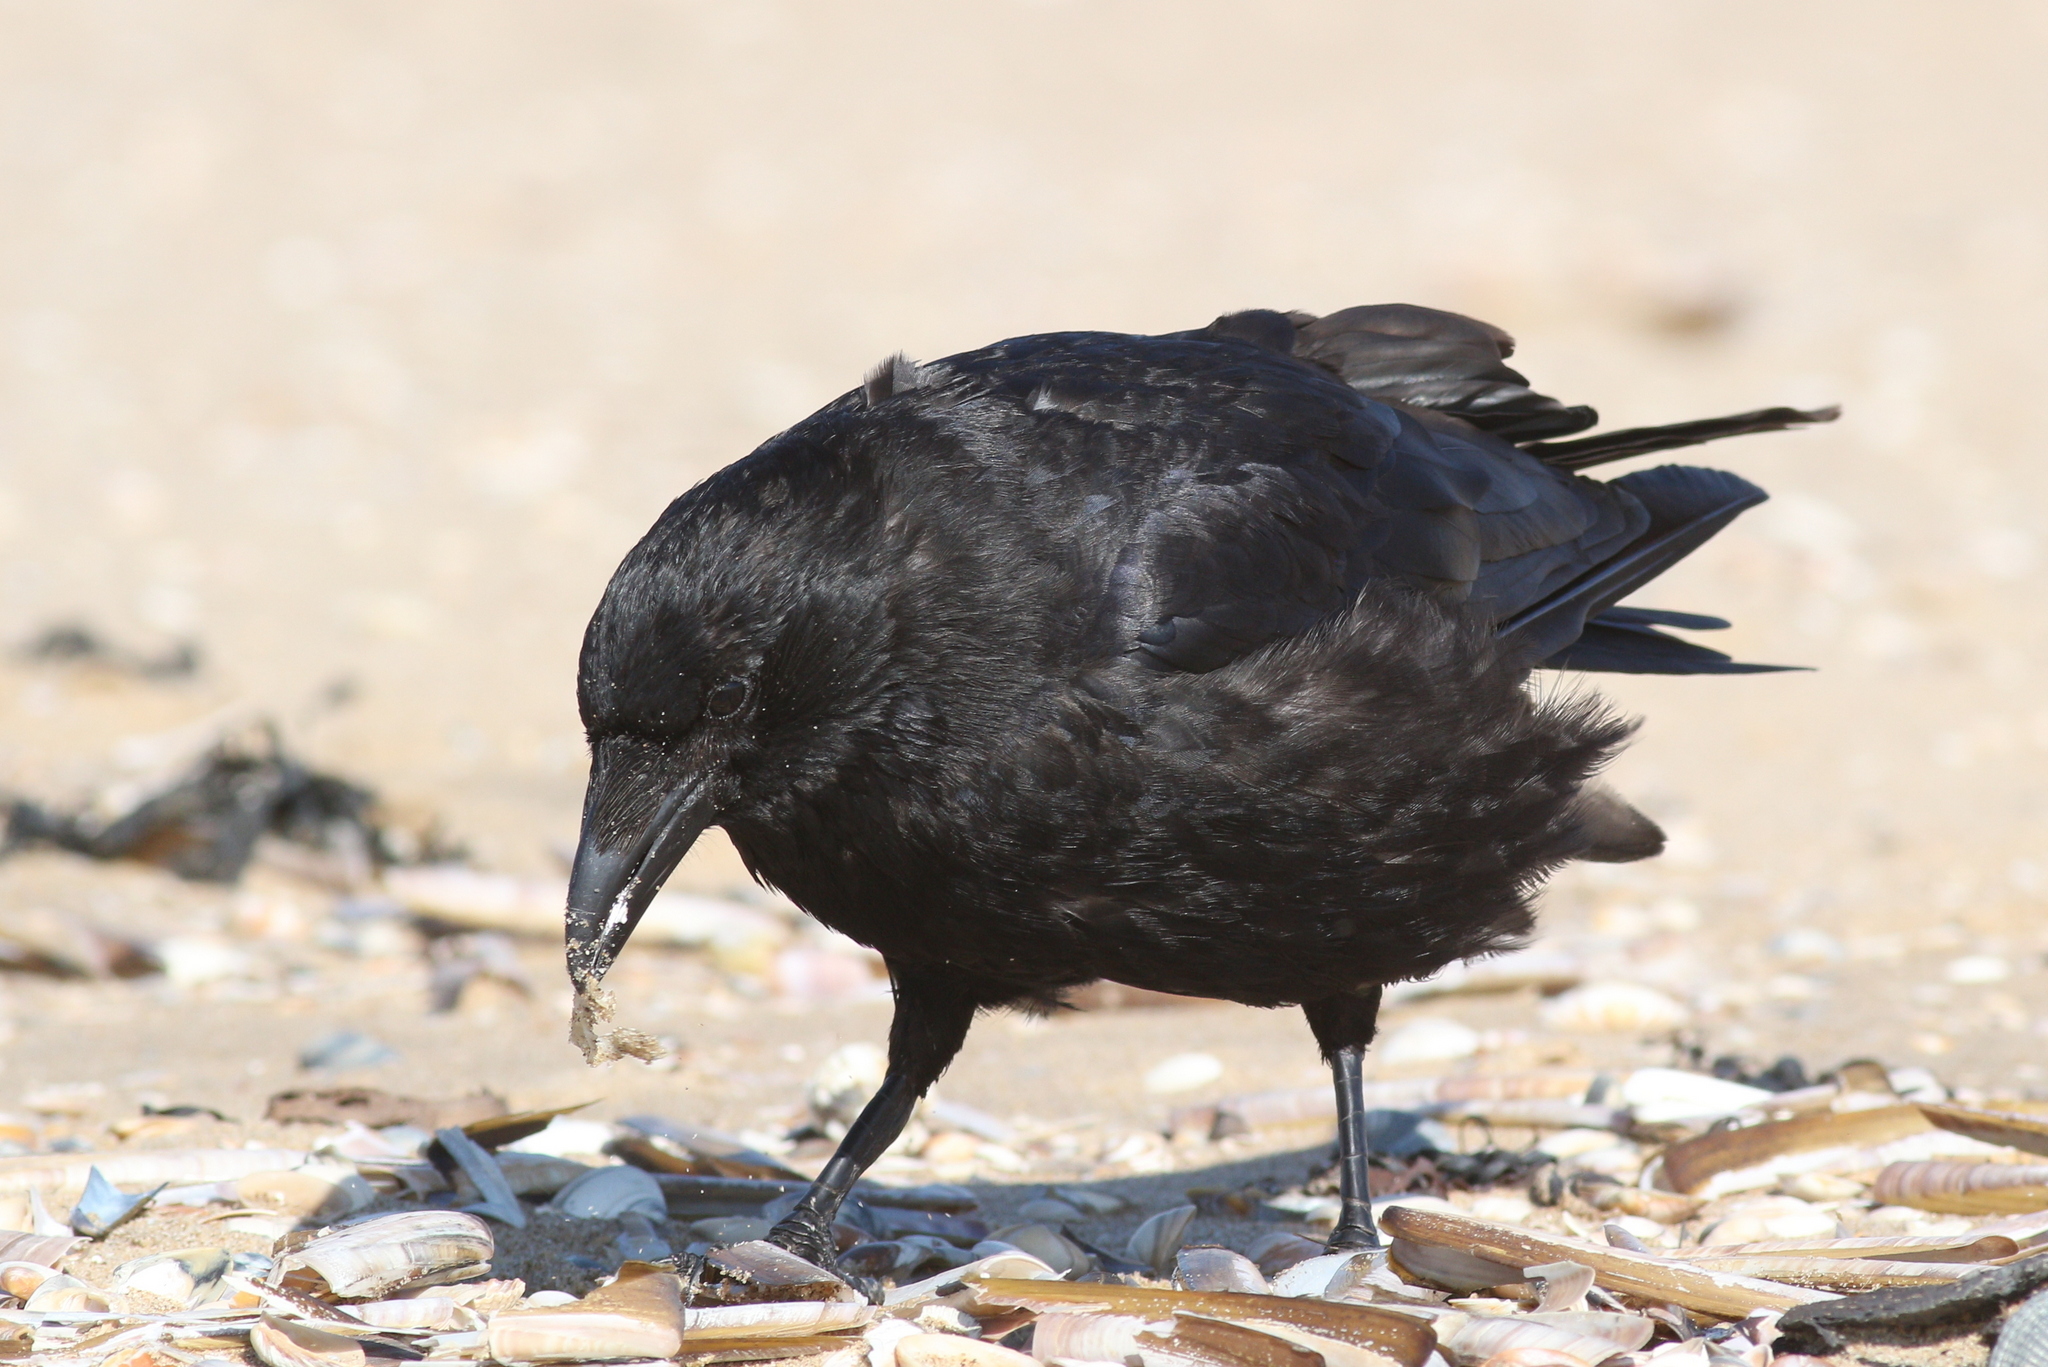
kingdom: Animalia
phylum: Chordata
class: Aves
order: Passeriformes
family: Corvidae
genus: Corvus
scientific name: Corvus corone
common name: Carrion crow
